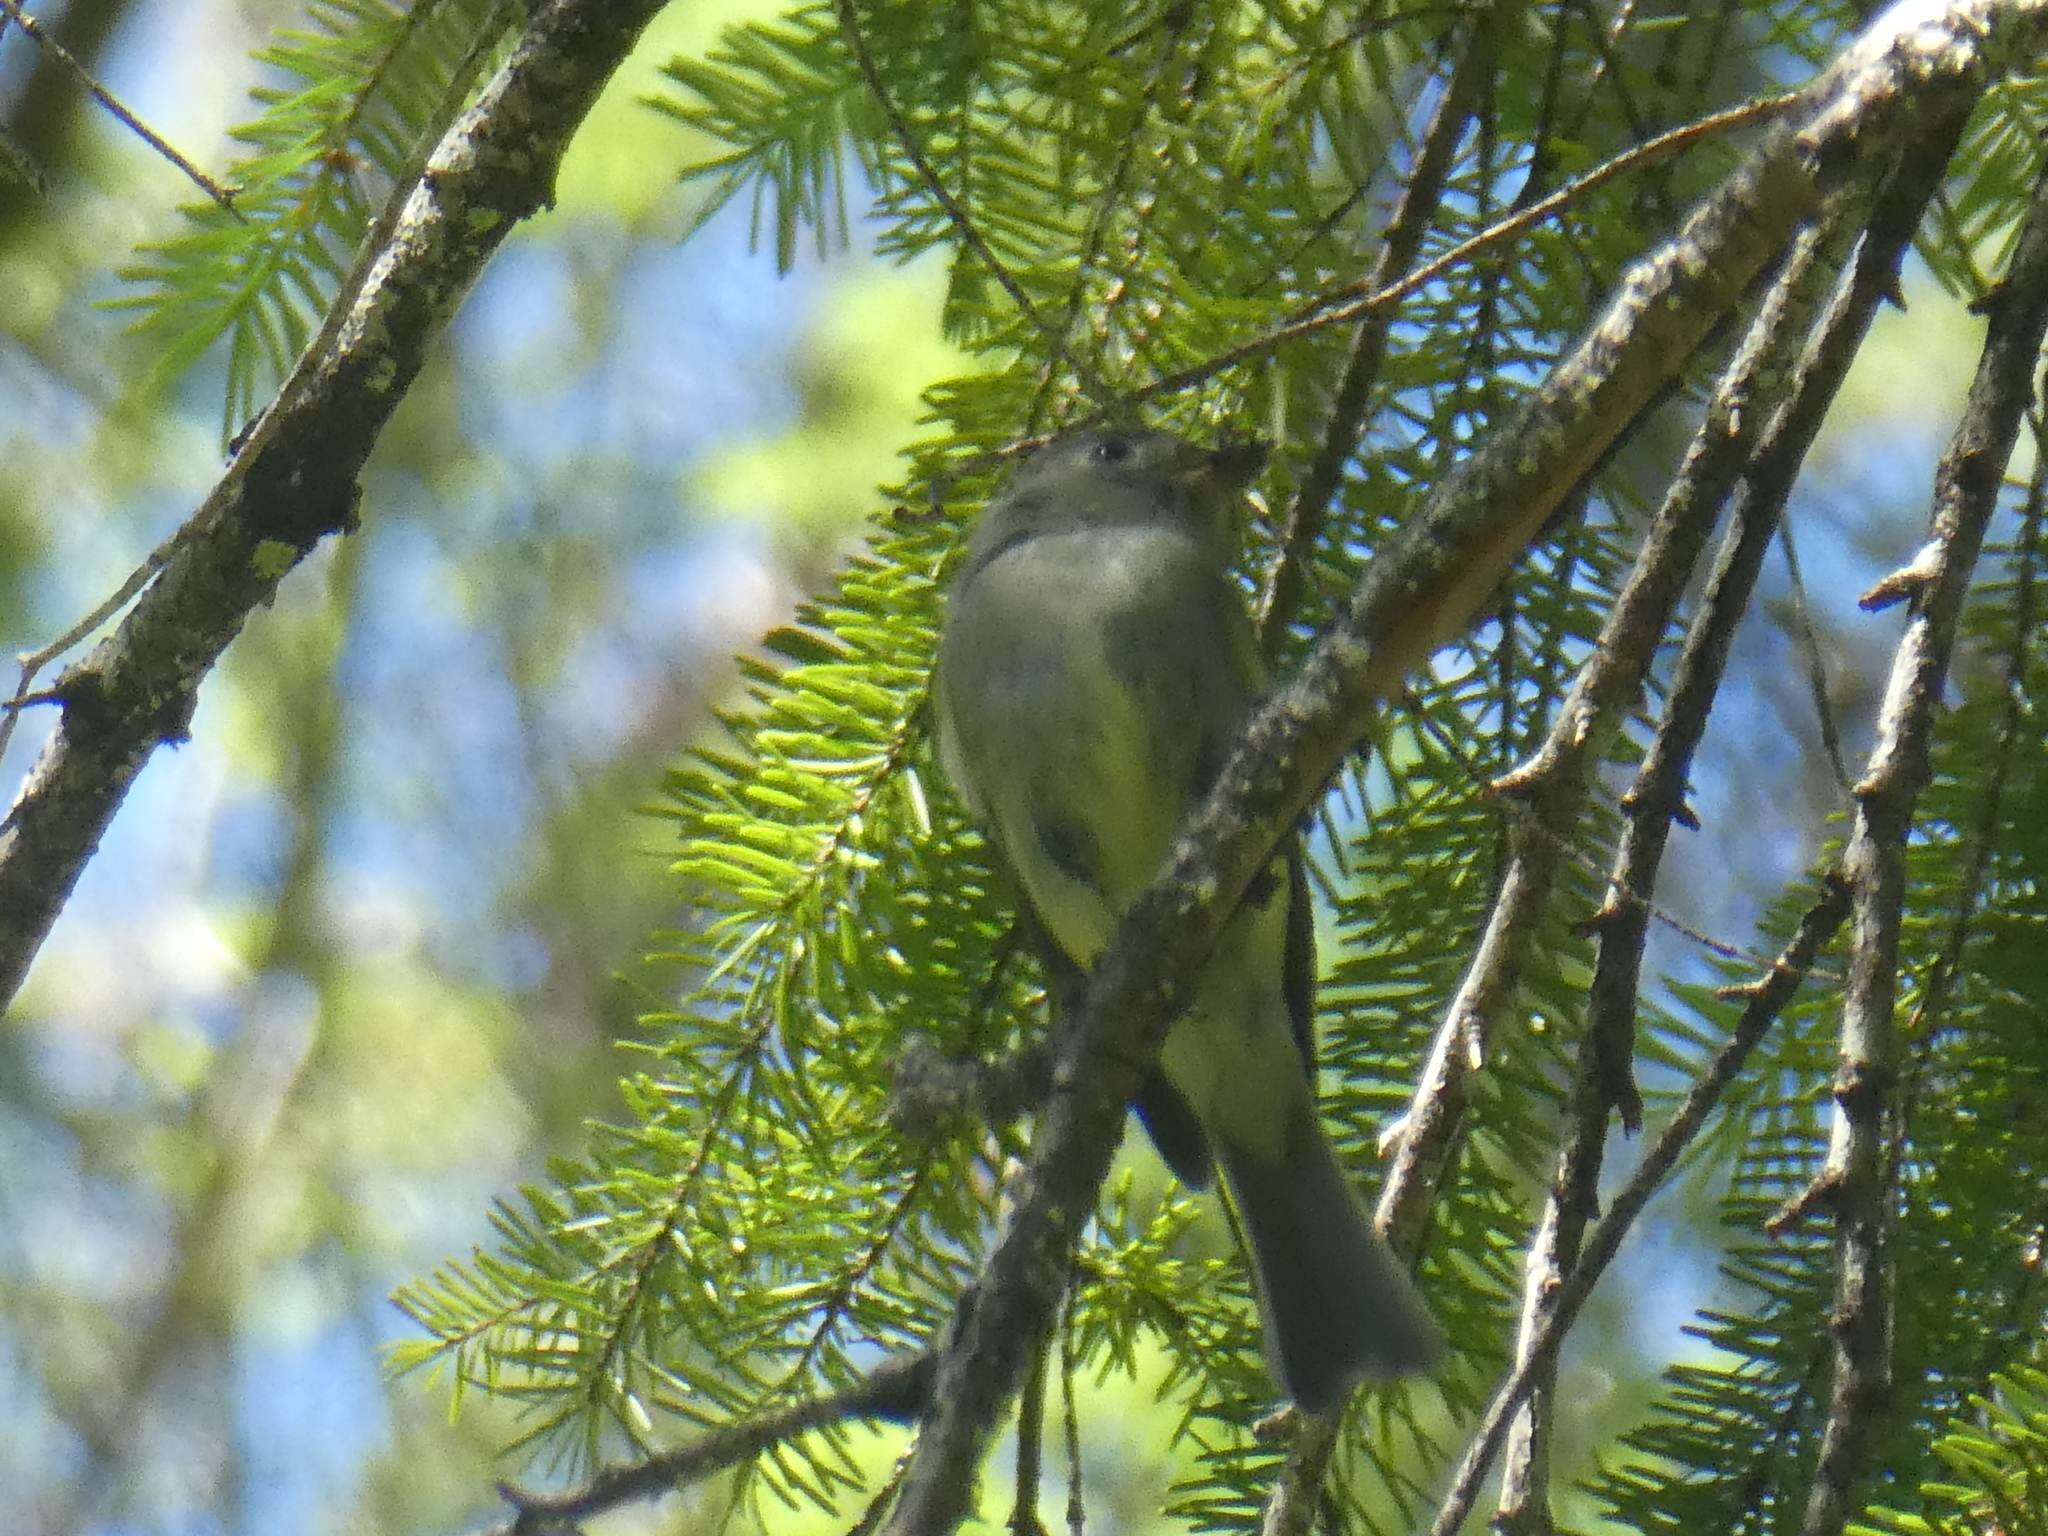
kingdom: Animalia
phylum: Chordata
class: Aves
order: Passeriformes
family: Tyrannidae
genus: Empidonax
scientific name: Empidonax hammondii
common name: Hammond's flycatcher
